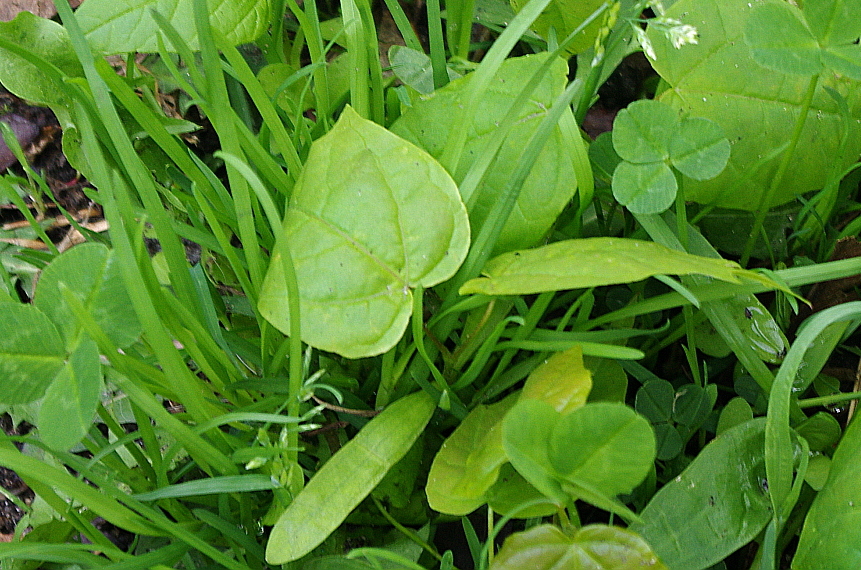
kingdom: Plantae
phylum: Tracheophyta
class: Magnoliopsida
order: Sapindales
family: Sapindaceae
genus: Acer
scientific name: Acer platanoides
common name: Norway maple
